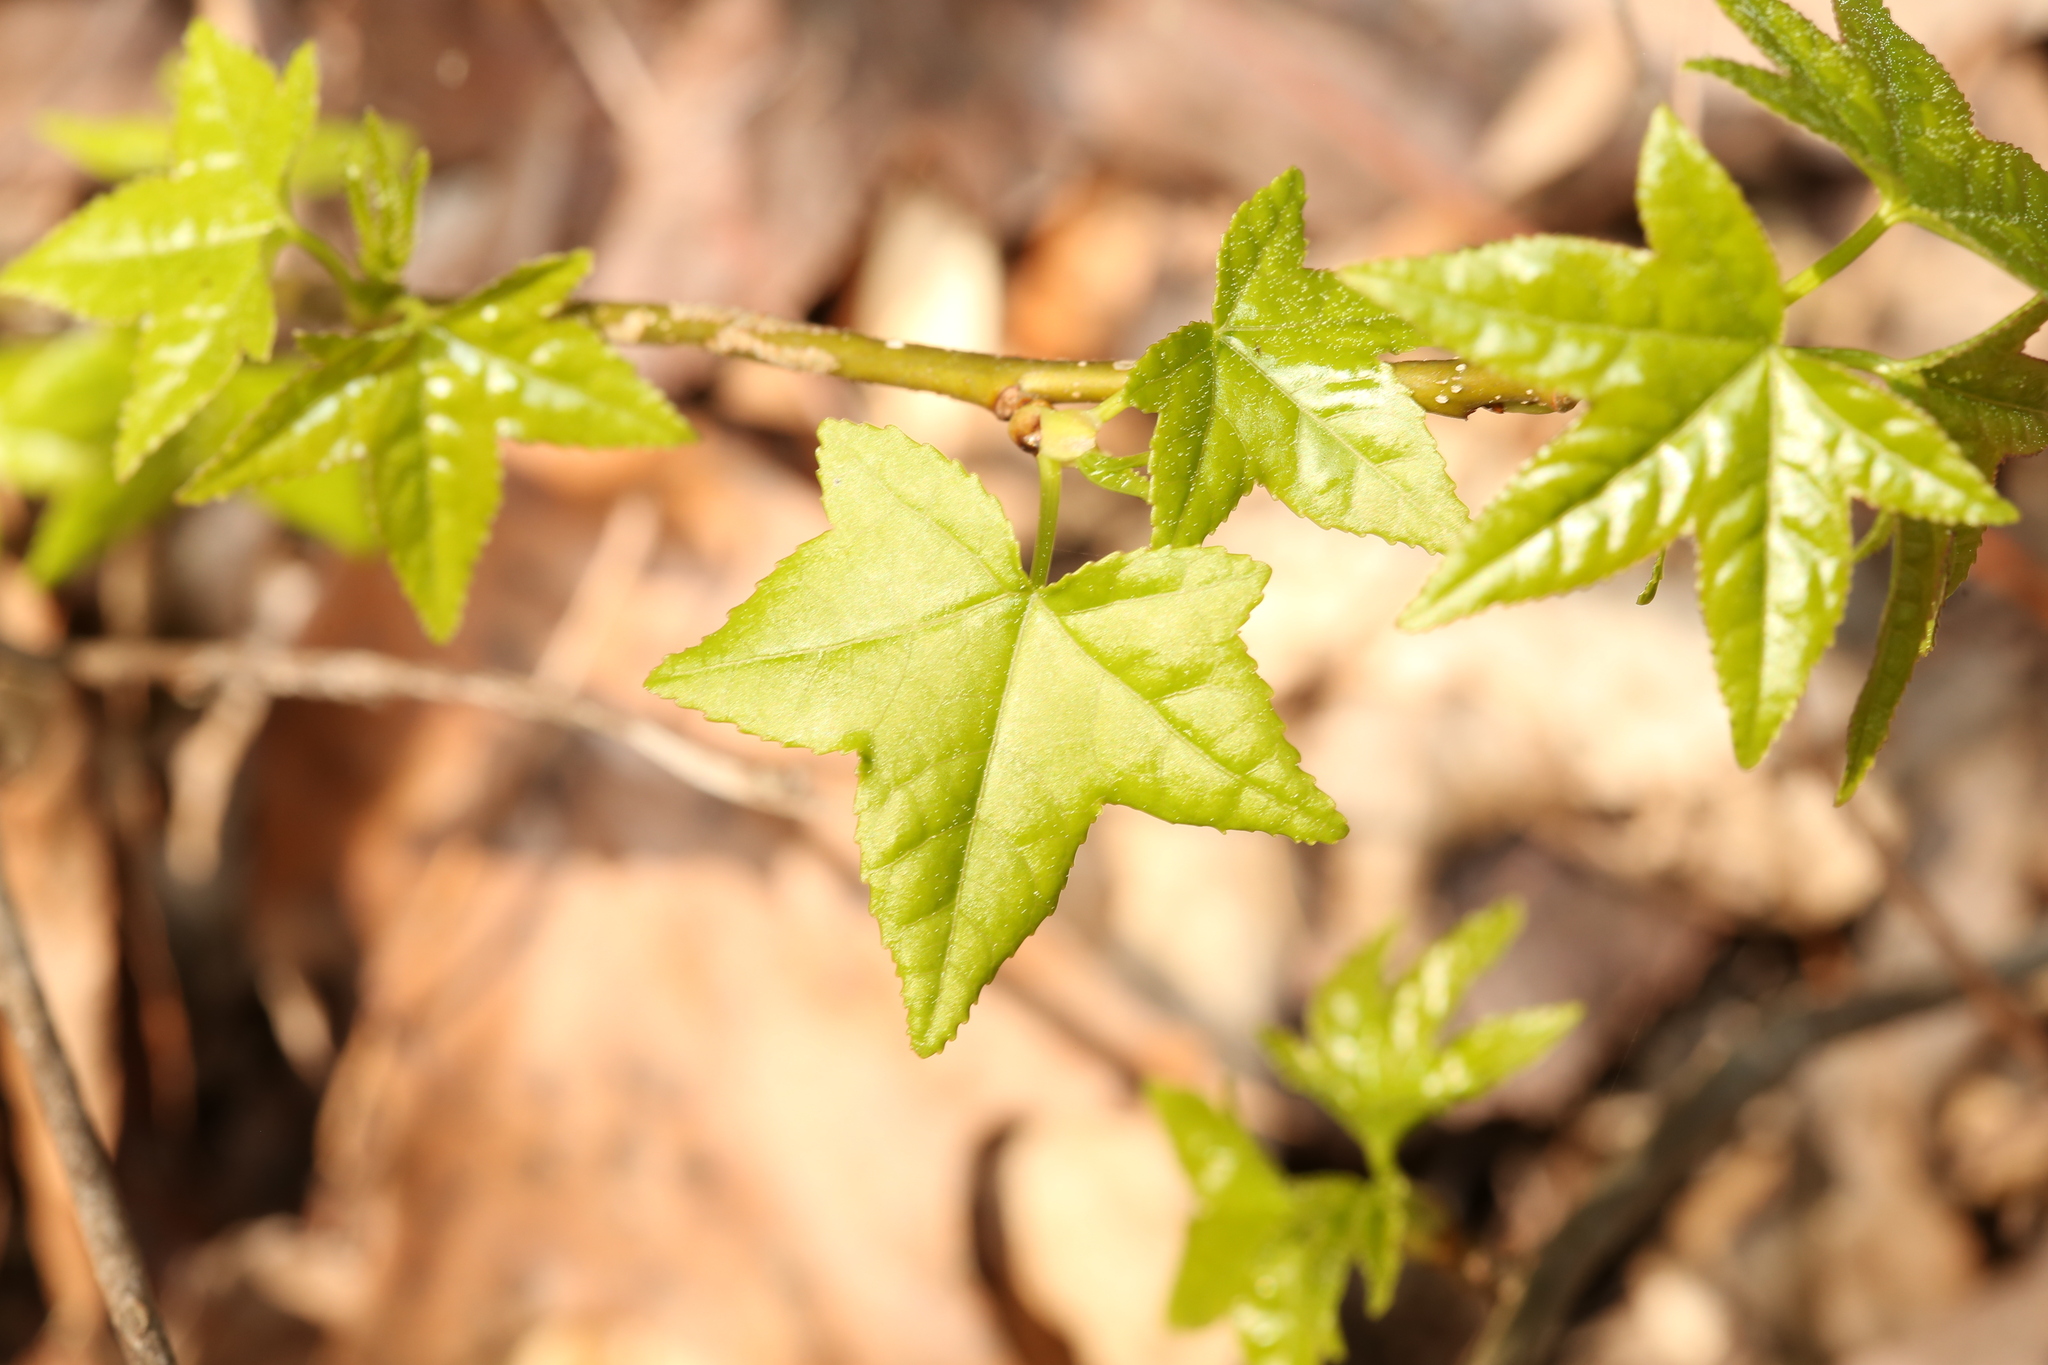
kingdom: Plantae
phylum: Tracheophyta
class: Magnoliopsida
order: Saxifragales
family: Altingiaceae
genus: Liquidambar
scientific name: Liquidambar styraciflua
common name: Sweet gum
